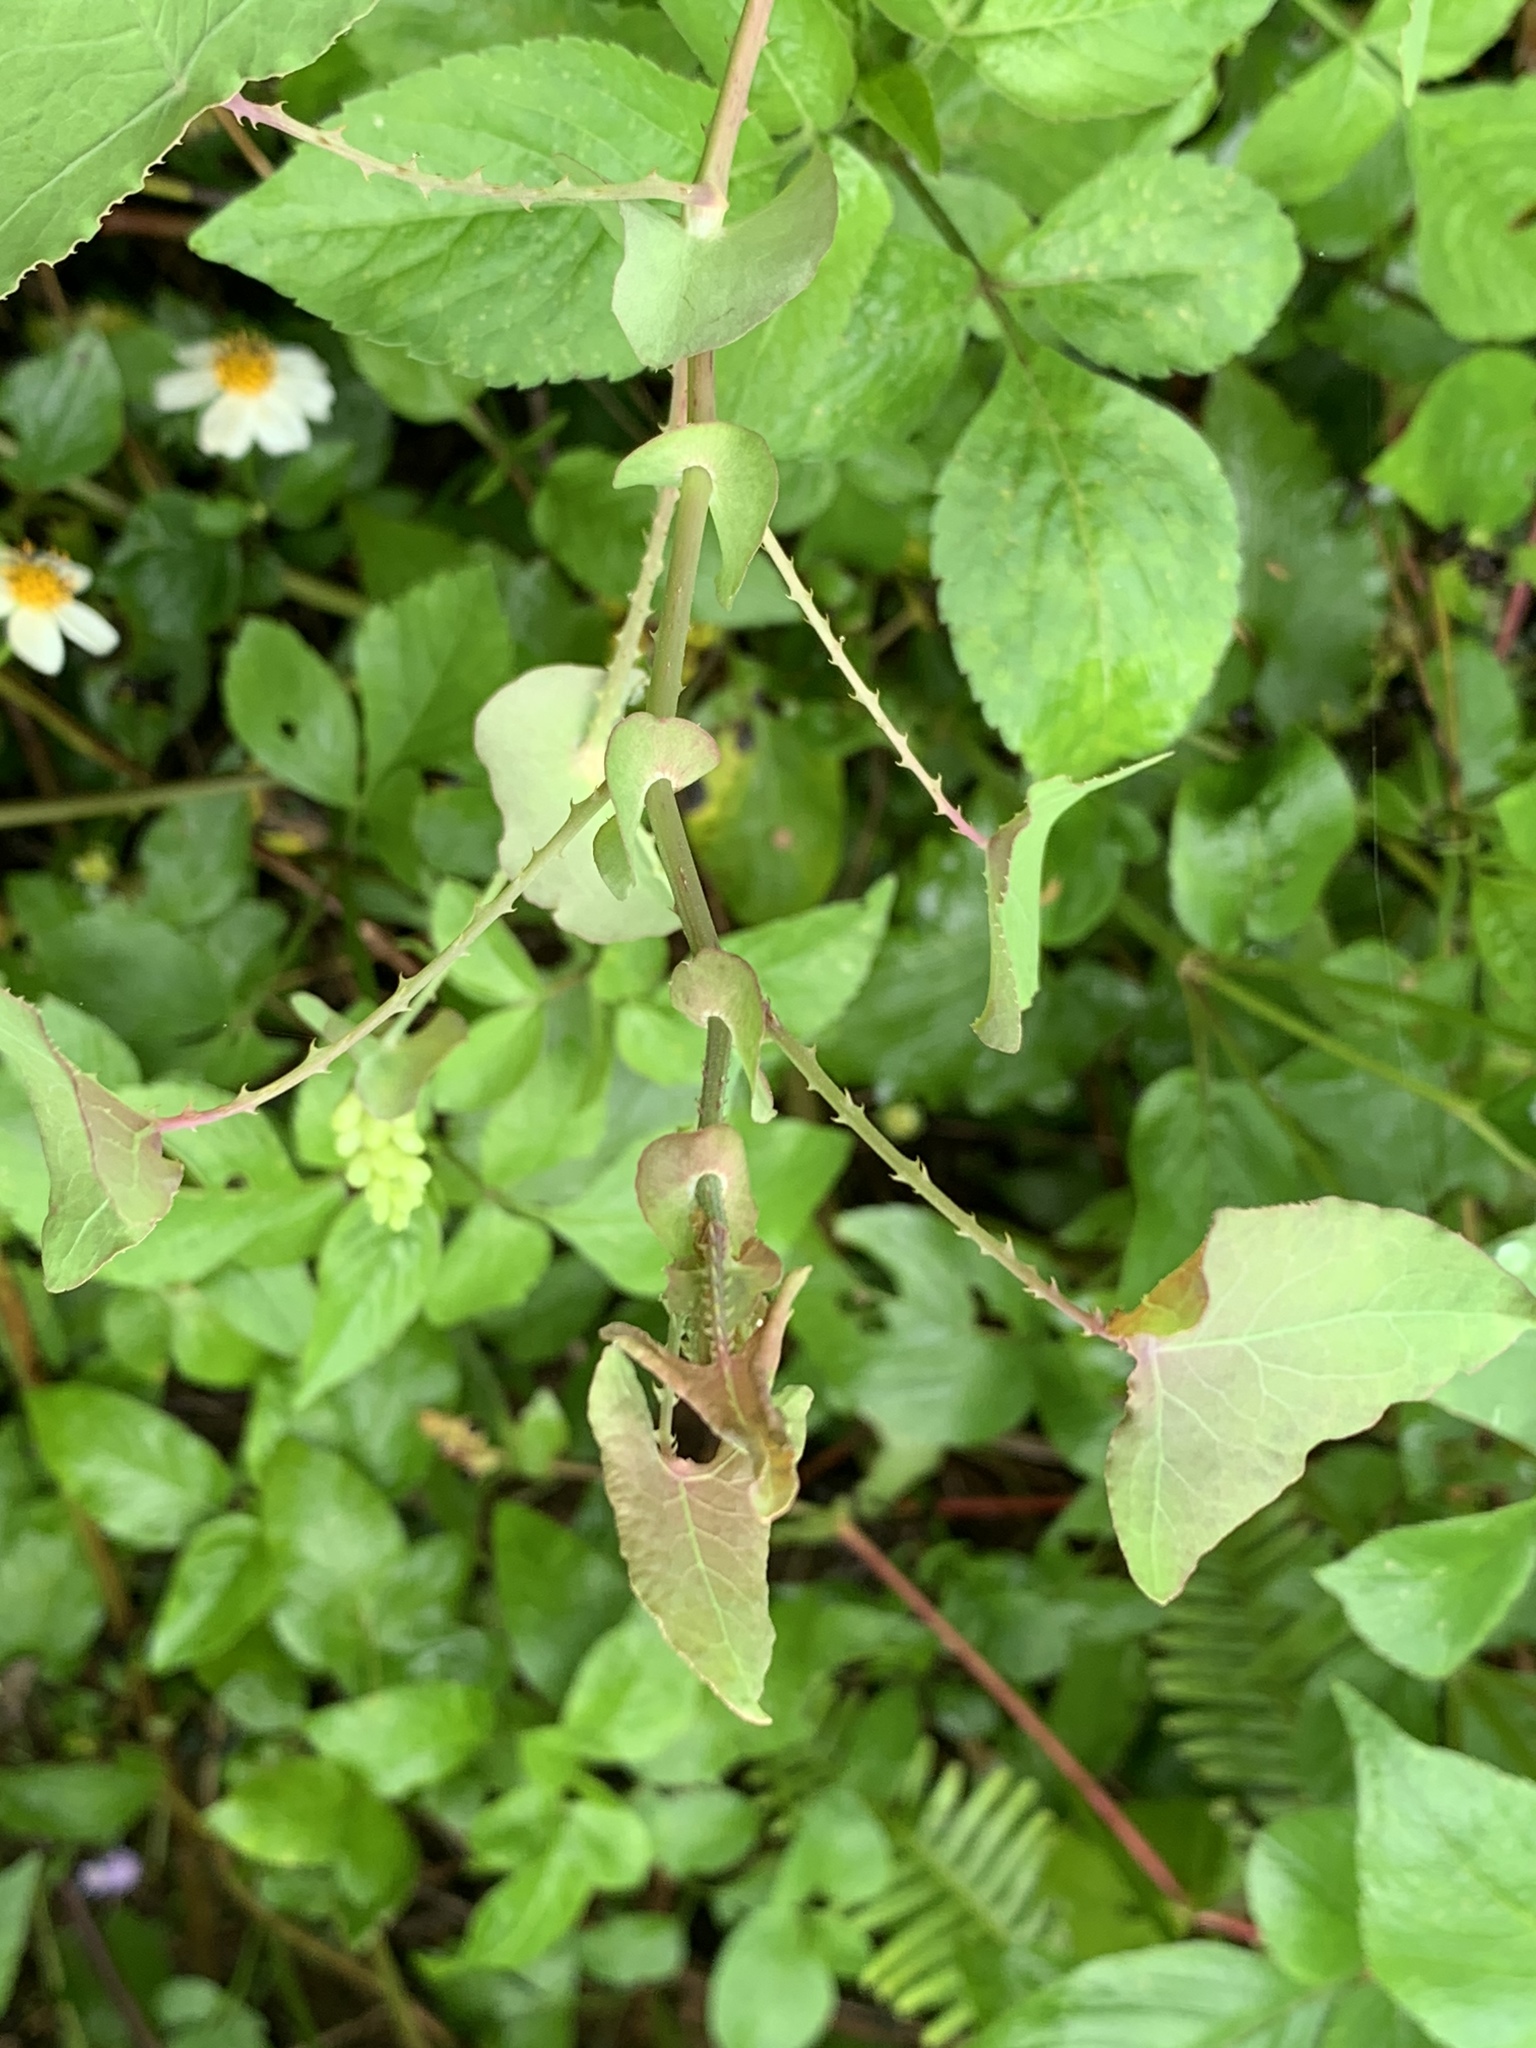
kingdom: Plantae
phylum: Tracheophyta
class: Magnoliopsida
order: Caryophyllales
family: Polygonaceae
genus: Persicaria
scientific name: Persicaria perfoliata
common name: Asiatic tearthumb
